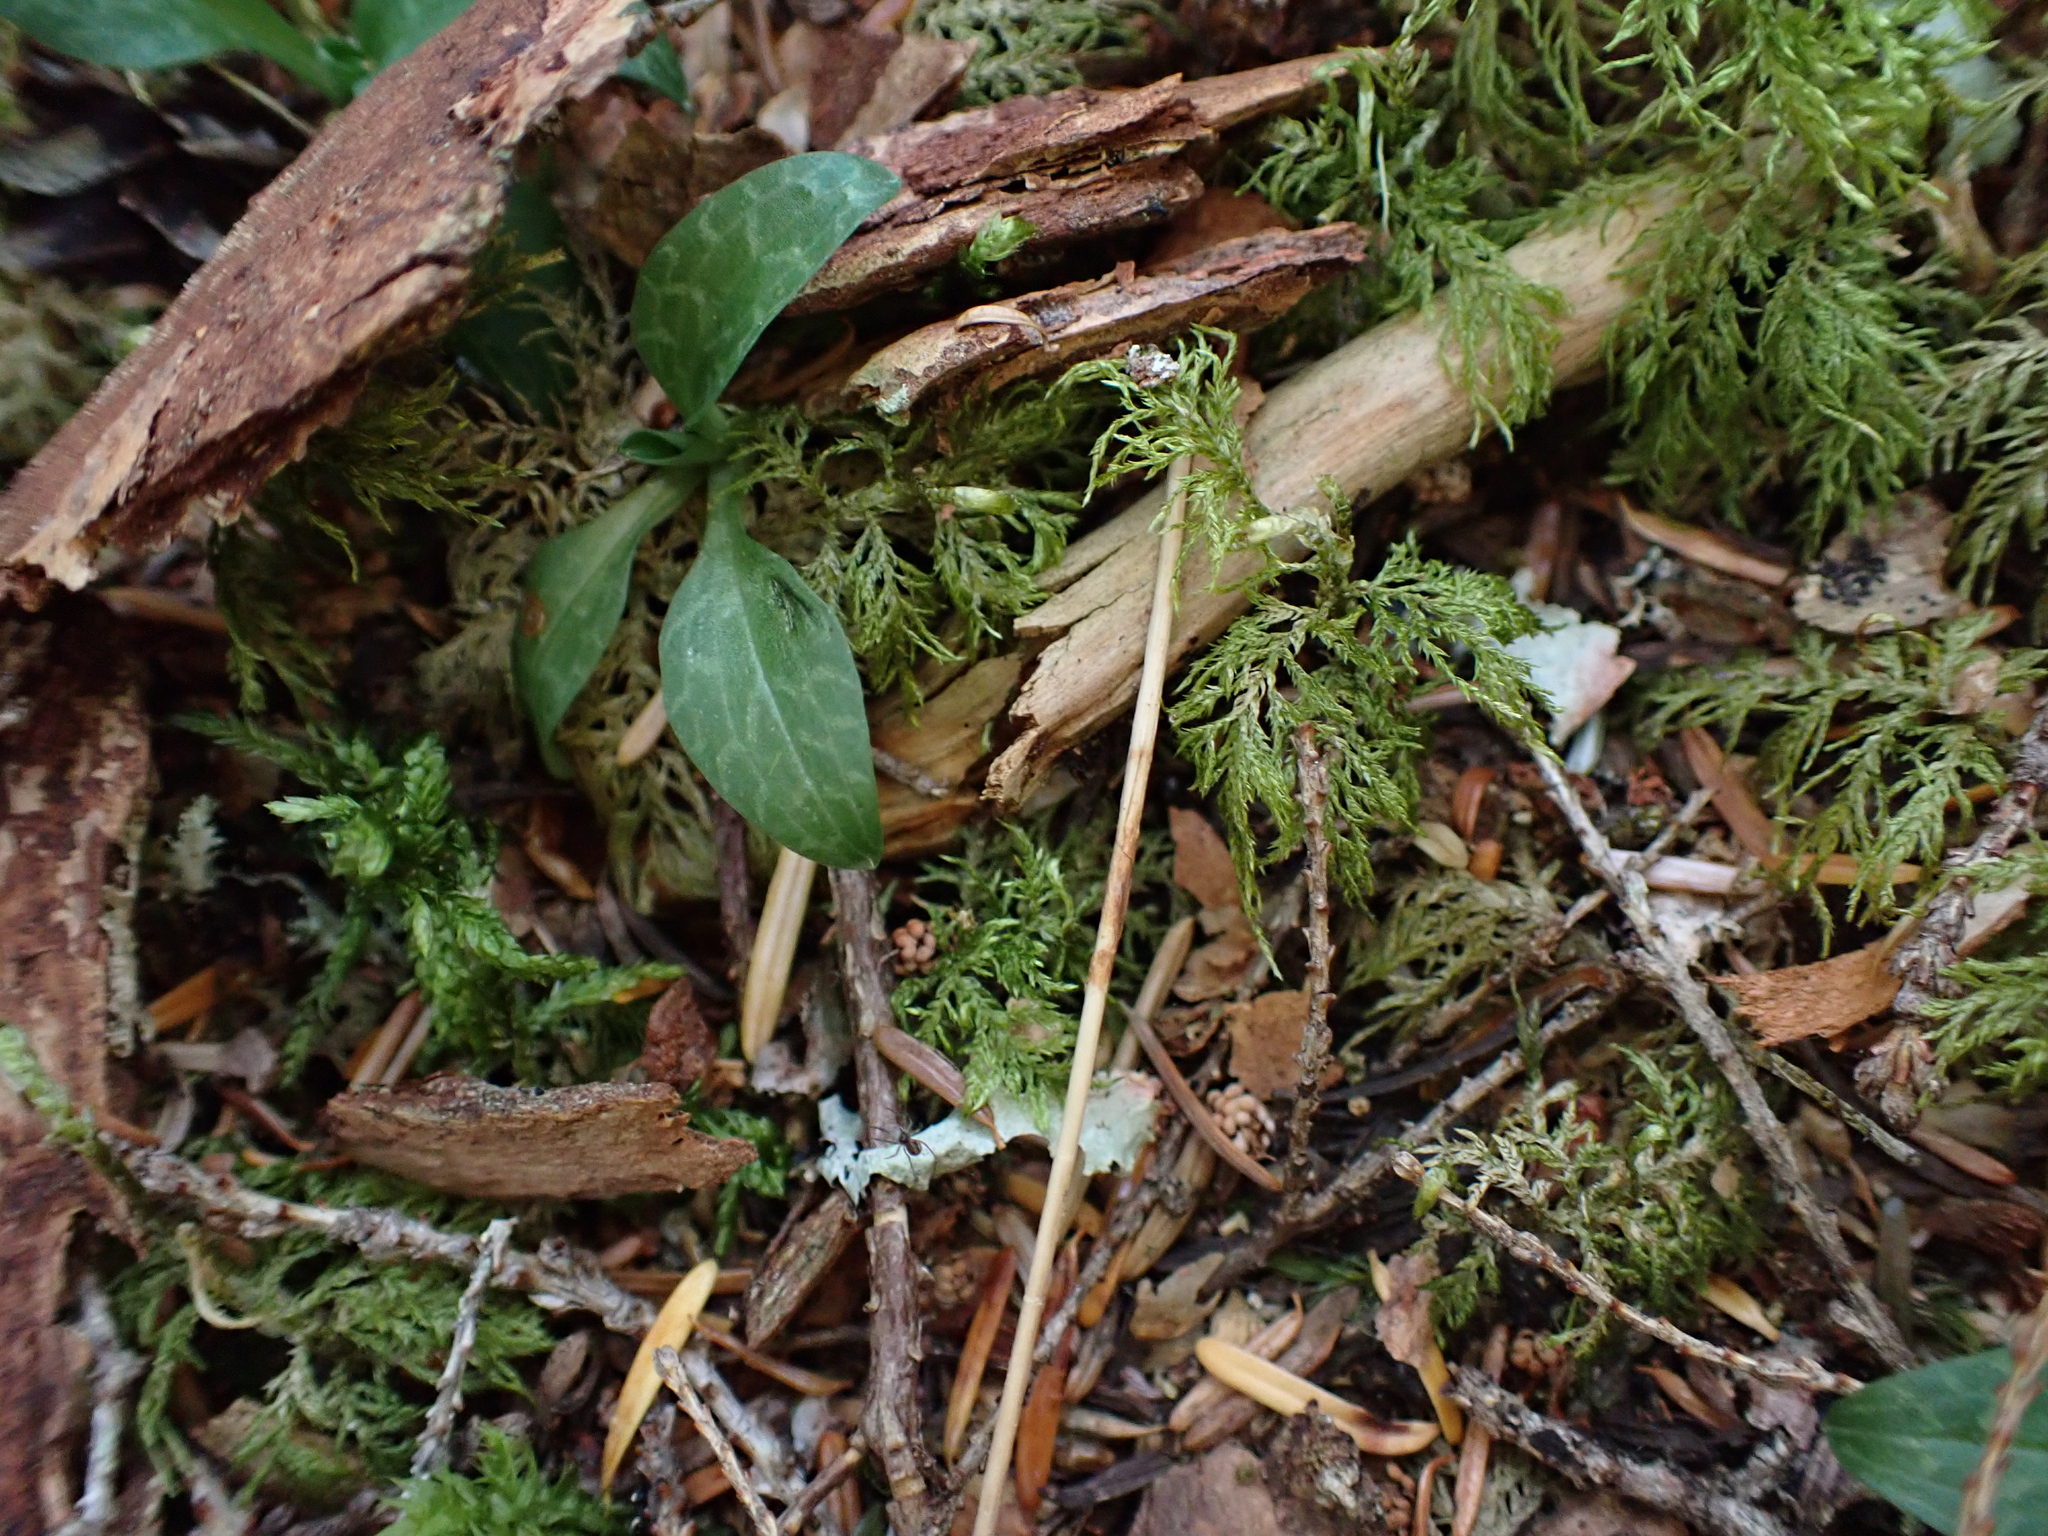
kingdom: Plantae
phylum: Tracheophyta
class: Liliopsida
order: Asparagales
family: Orchidaceae
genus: Goodyera
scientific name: Goodyera repens
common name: Creeping lady's-tresses
